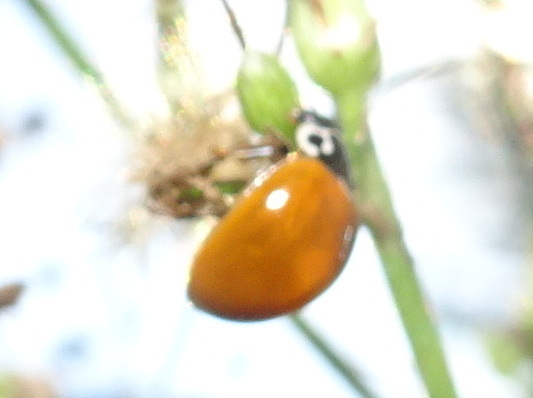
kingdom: Animalia
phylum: Arthropoda
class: Insecta
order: Coleoptera
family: Coccinellidae
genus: Cycloneda
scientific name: Cycloneda munda
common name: Polished lady beetle
